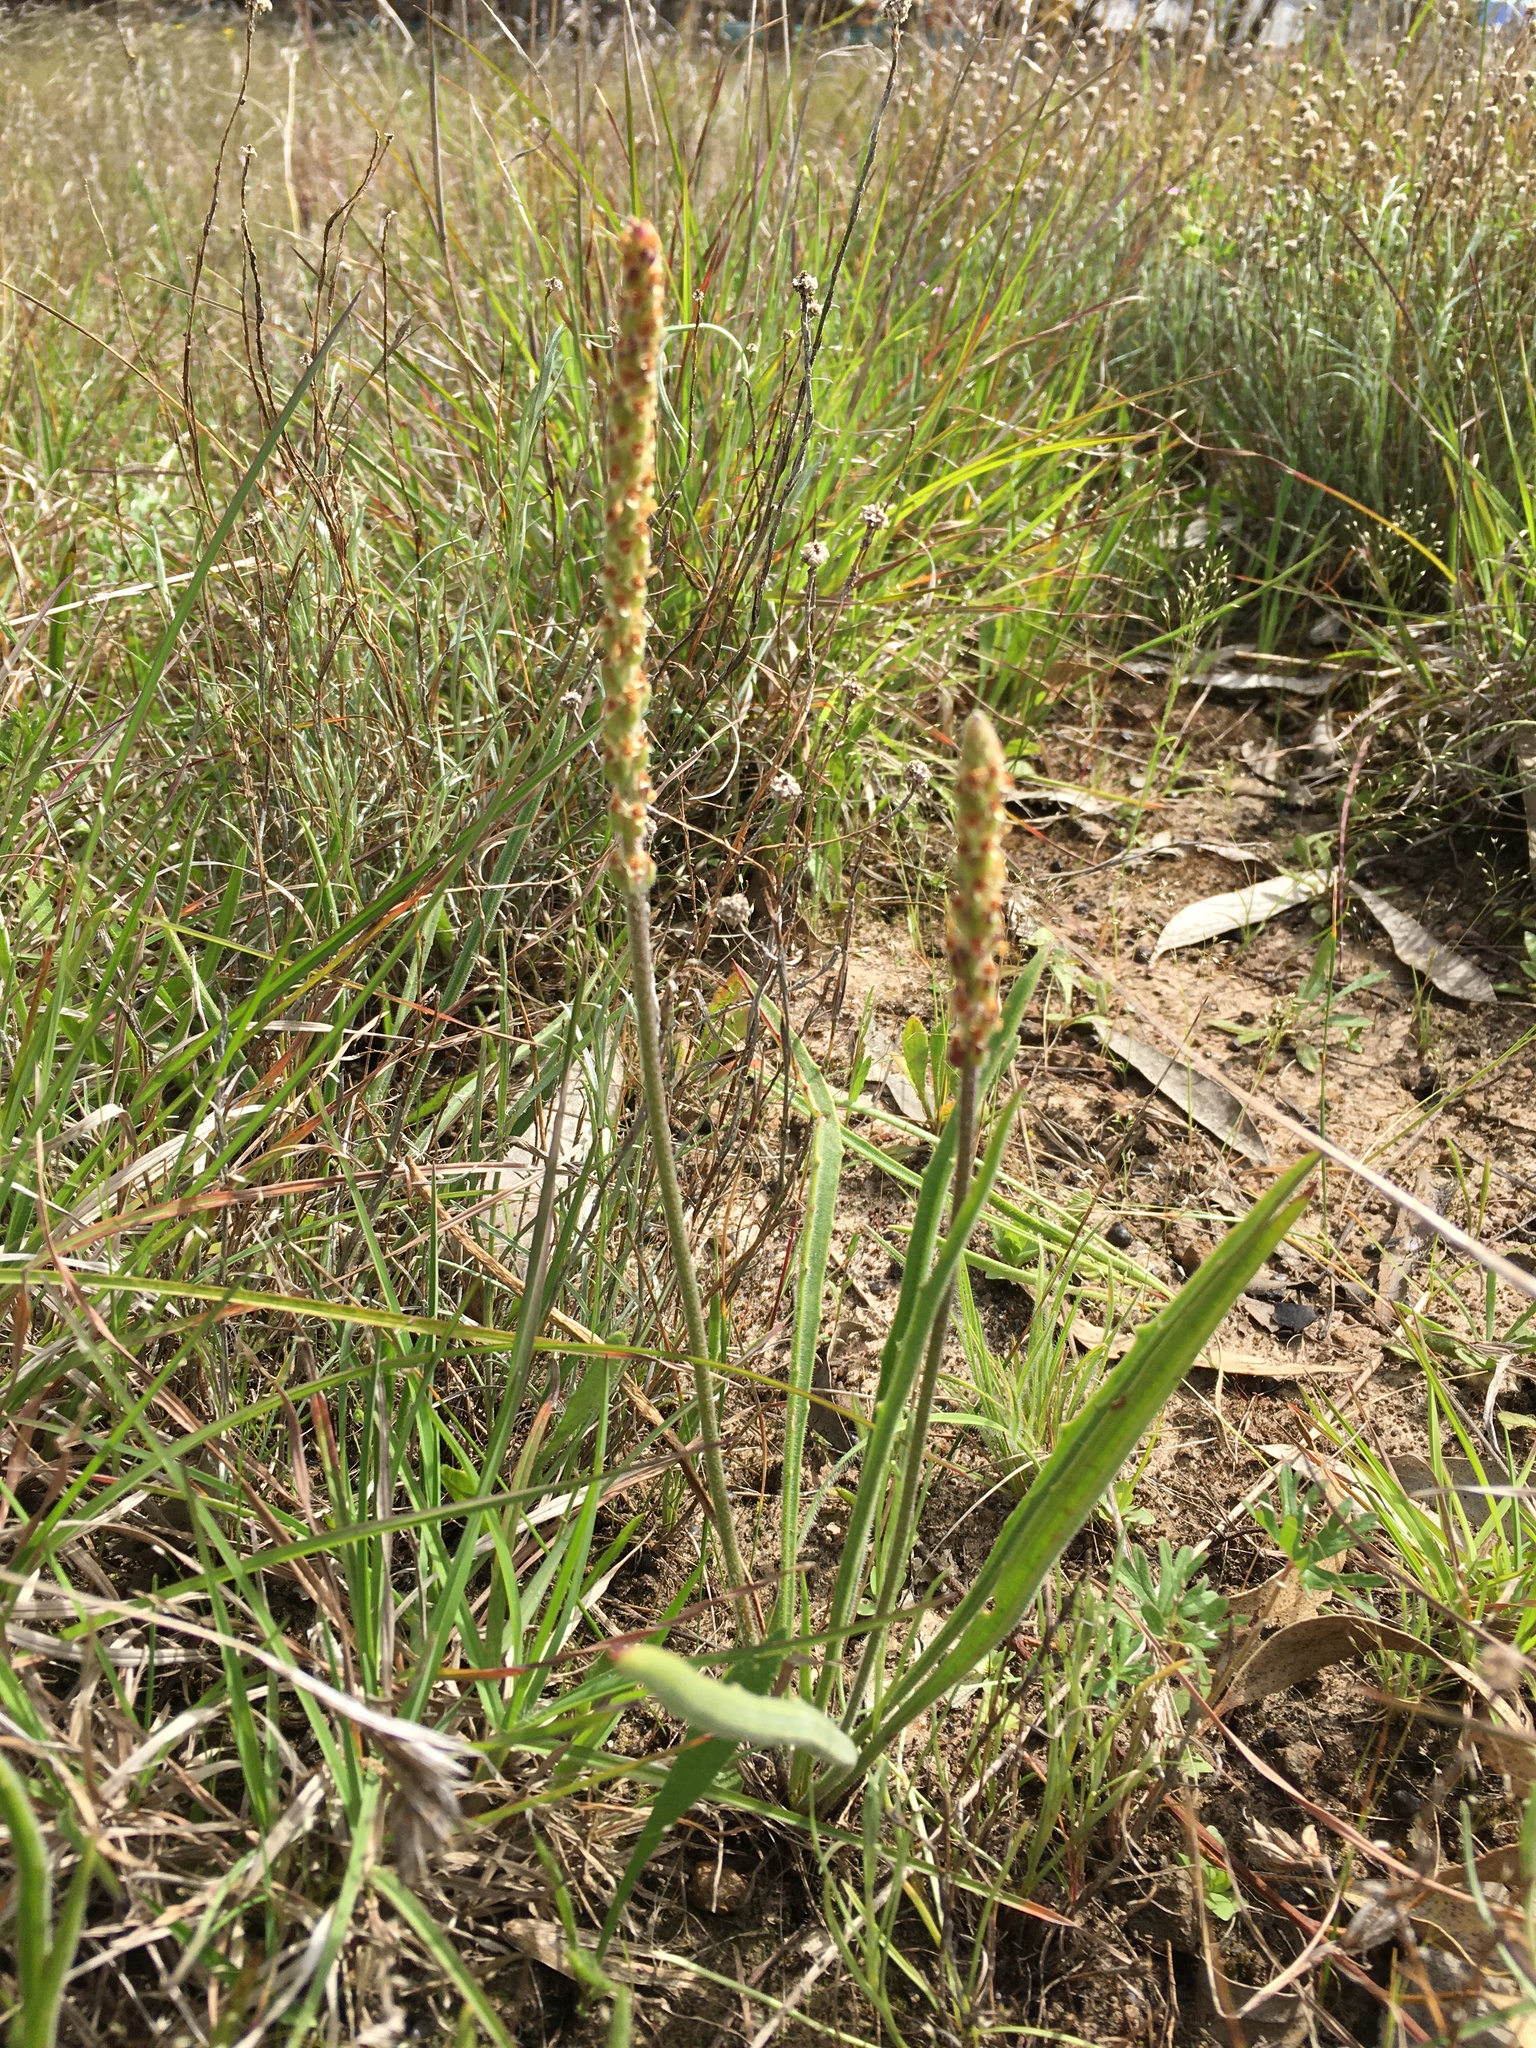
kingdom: Plantae
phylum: Tracheophyta
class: Magnoliopsida
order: Lamiales
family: Plantaginaceae
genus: Plantago
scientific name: Plantago gaudichaudii
